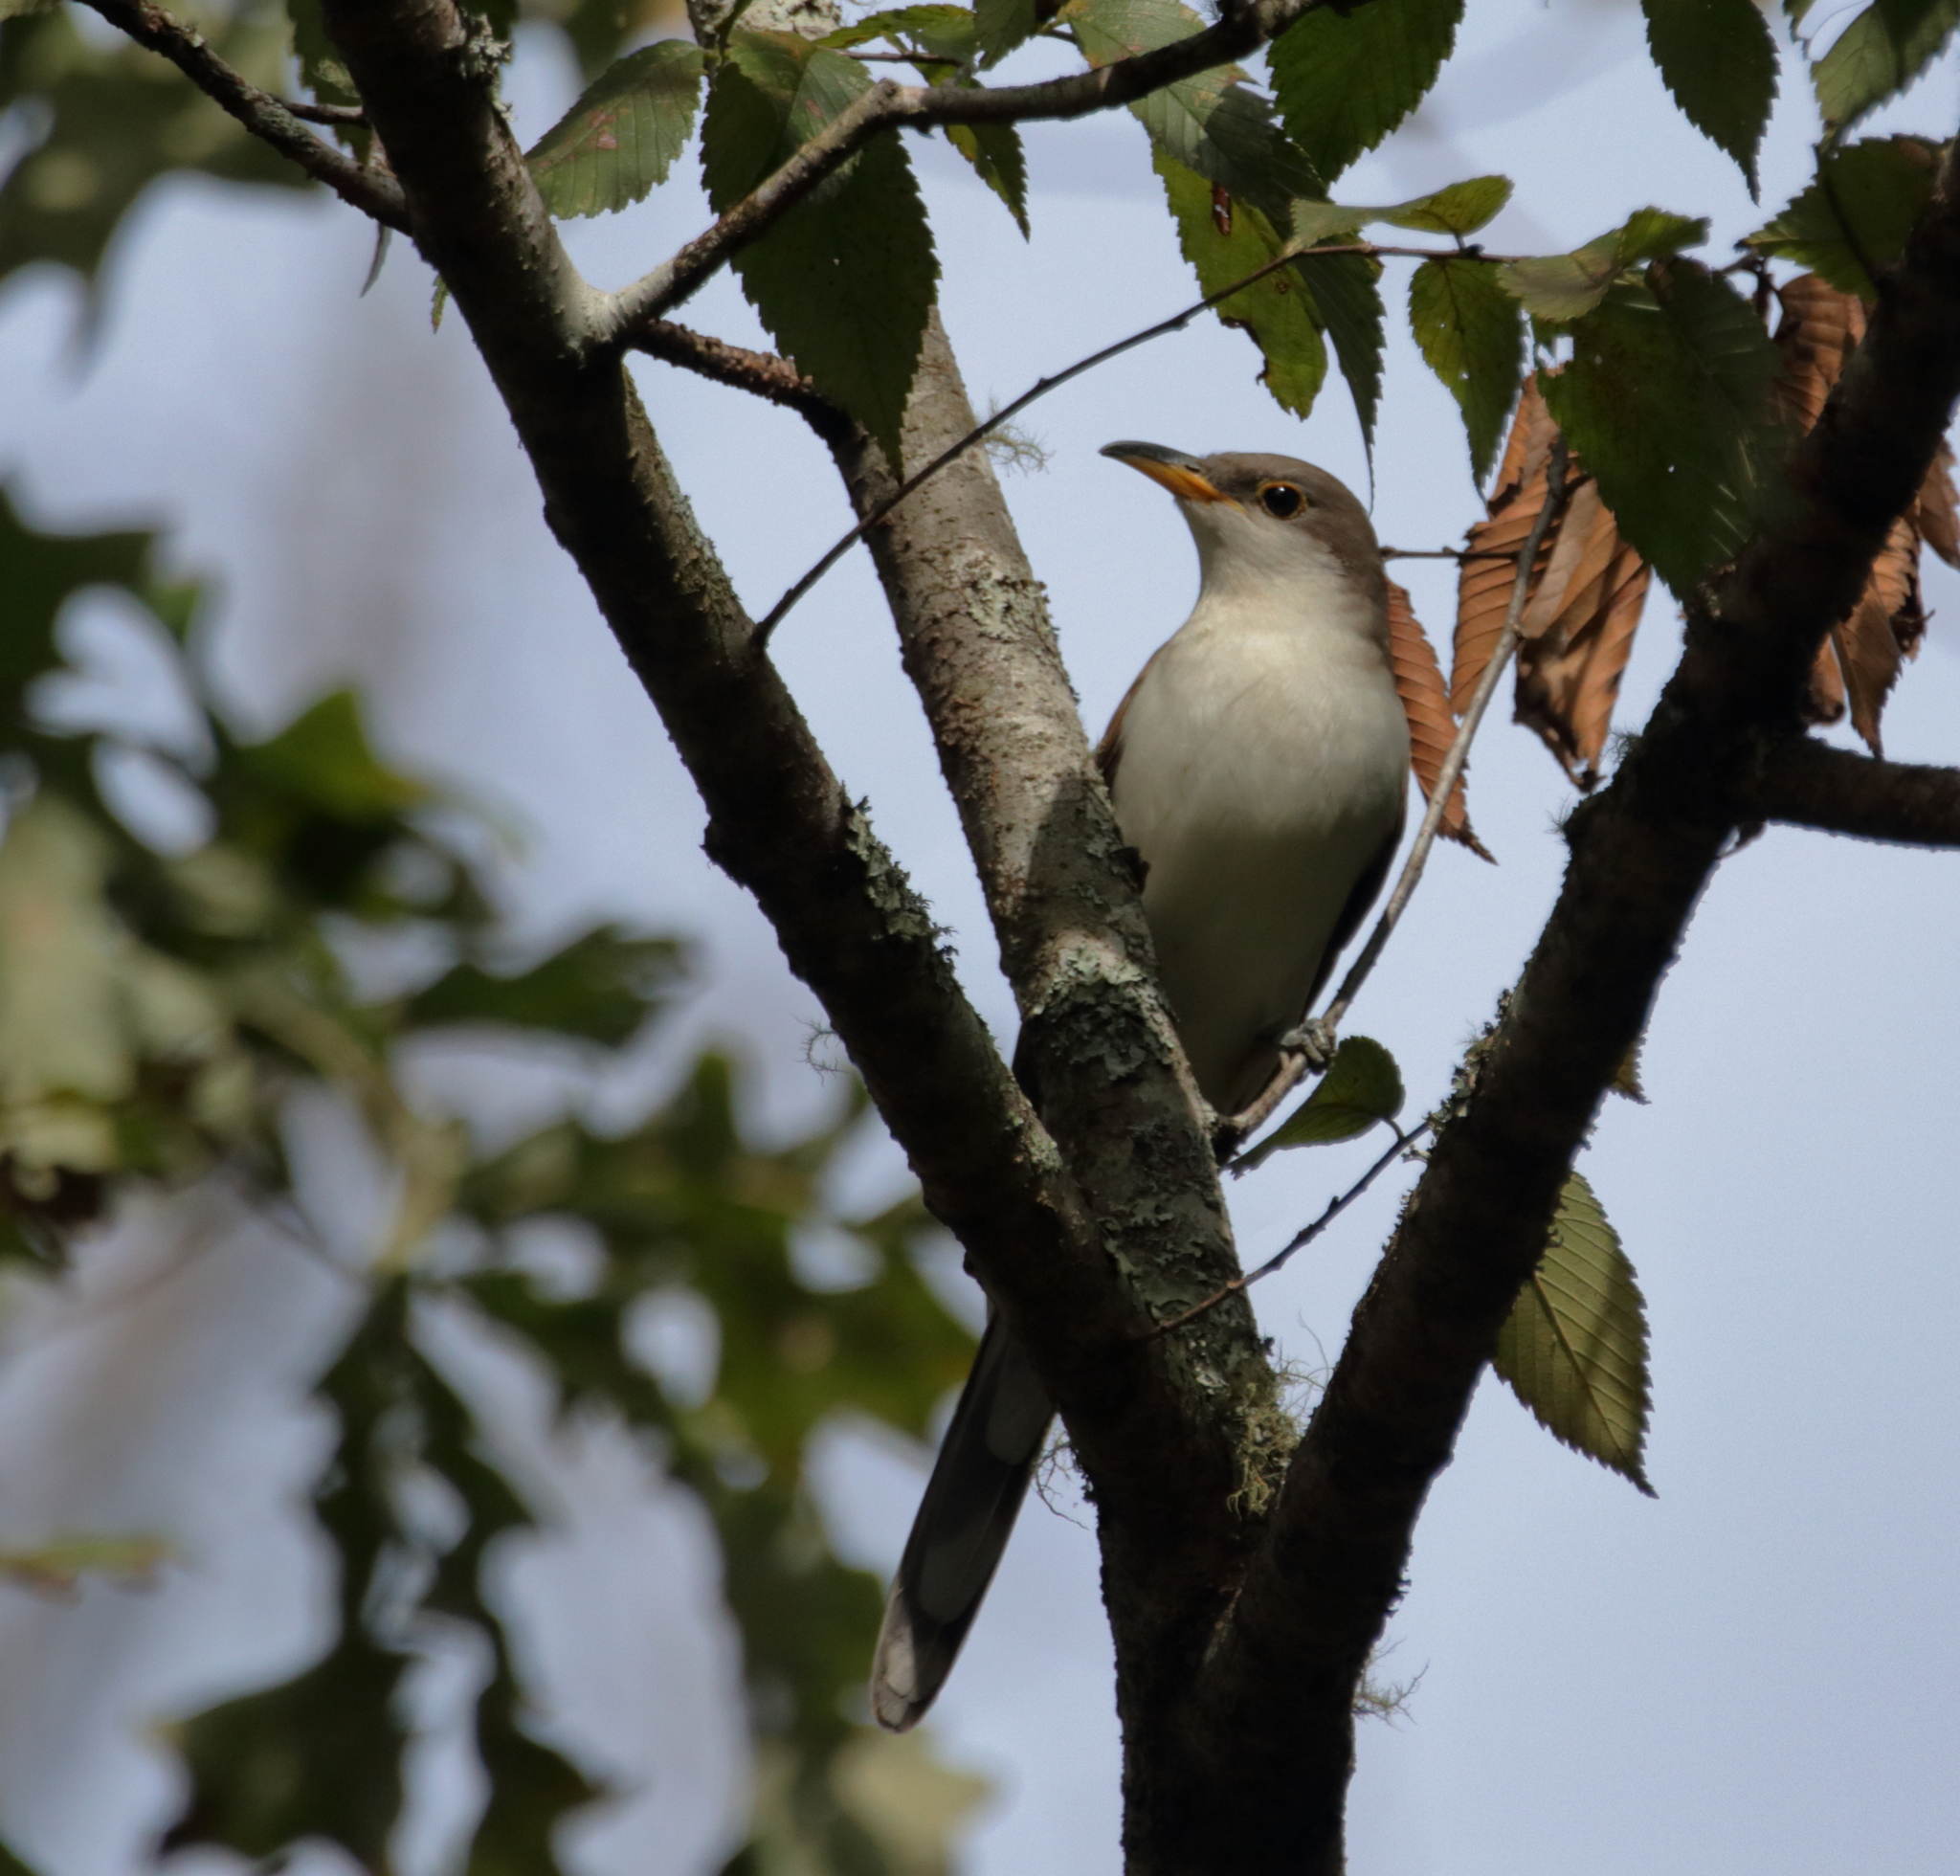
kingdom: Animalia
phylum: Chordata
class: Aves
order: Cuculiformes
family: Cuculidae
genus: Coccyzus
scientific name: Coccyzus americanus
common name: Yellow-billed cuckoo
